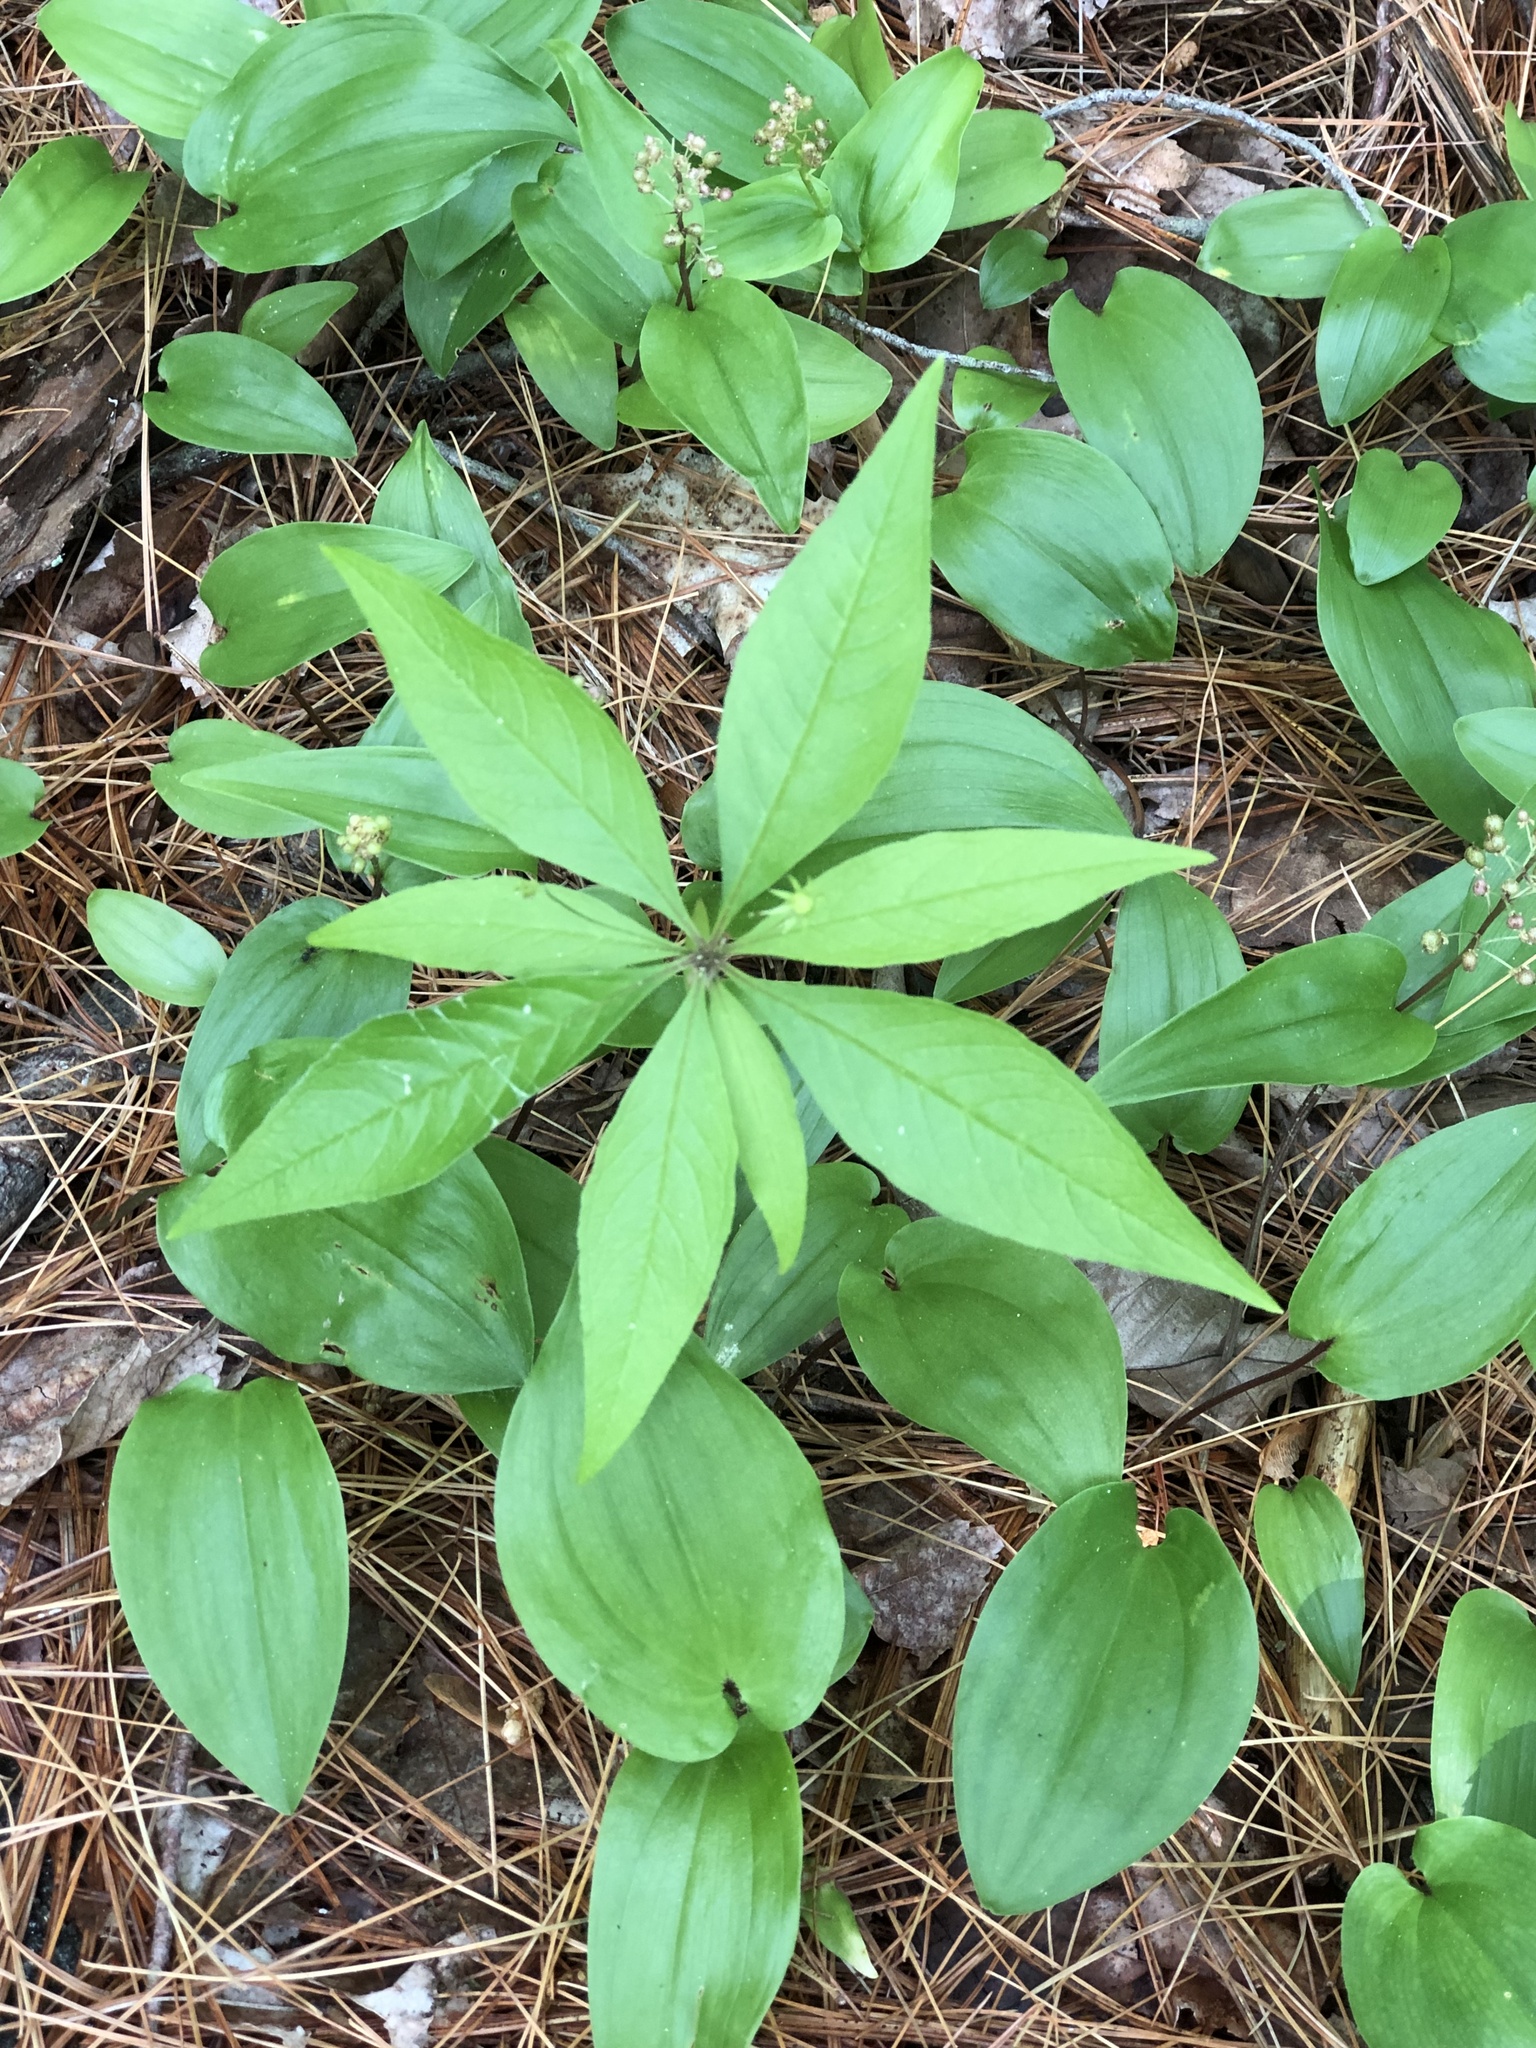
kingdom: Plantae
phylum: Tracheophyta
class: Magnoliopsida
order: Ericales
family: Primulaceae
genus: Lysimachia
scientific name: Lysimachia borealis
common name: American starflower
